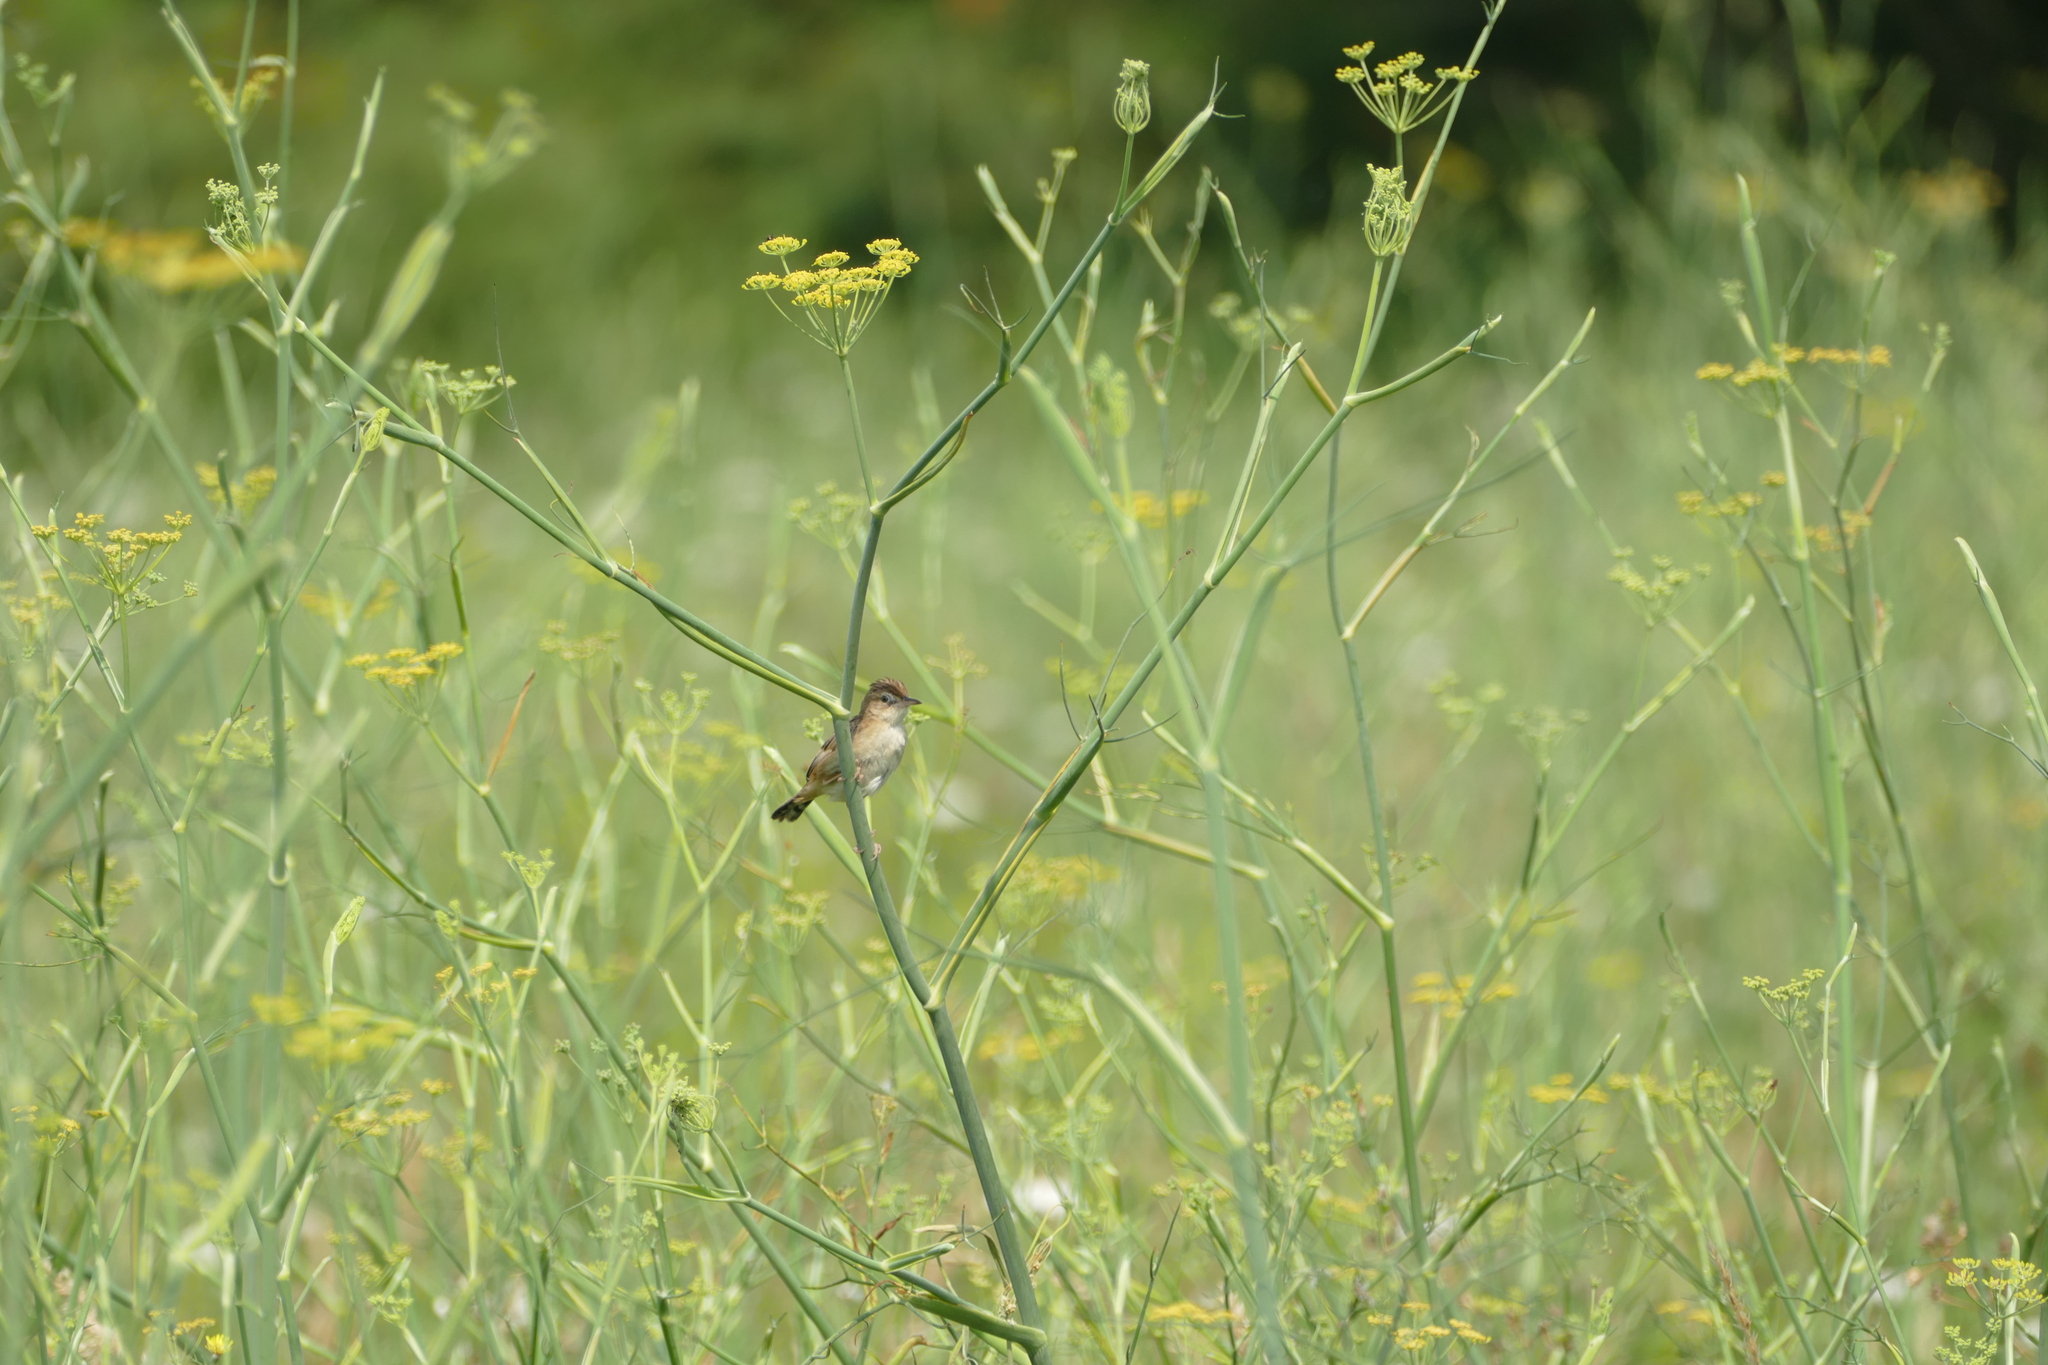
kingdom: Animalia
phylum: Chordata
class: Aves
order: Passeriformes
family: Cisticolidae
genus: Cisticola
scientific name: Cisticola juncidis
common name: Zitting cisticola
